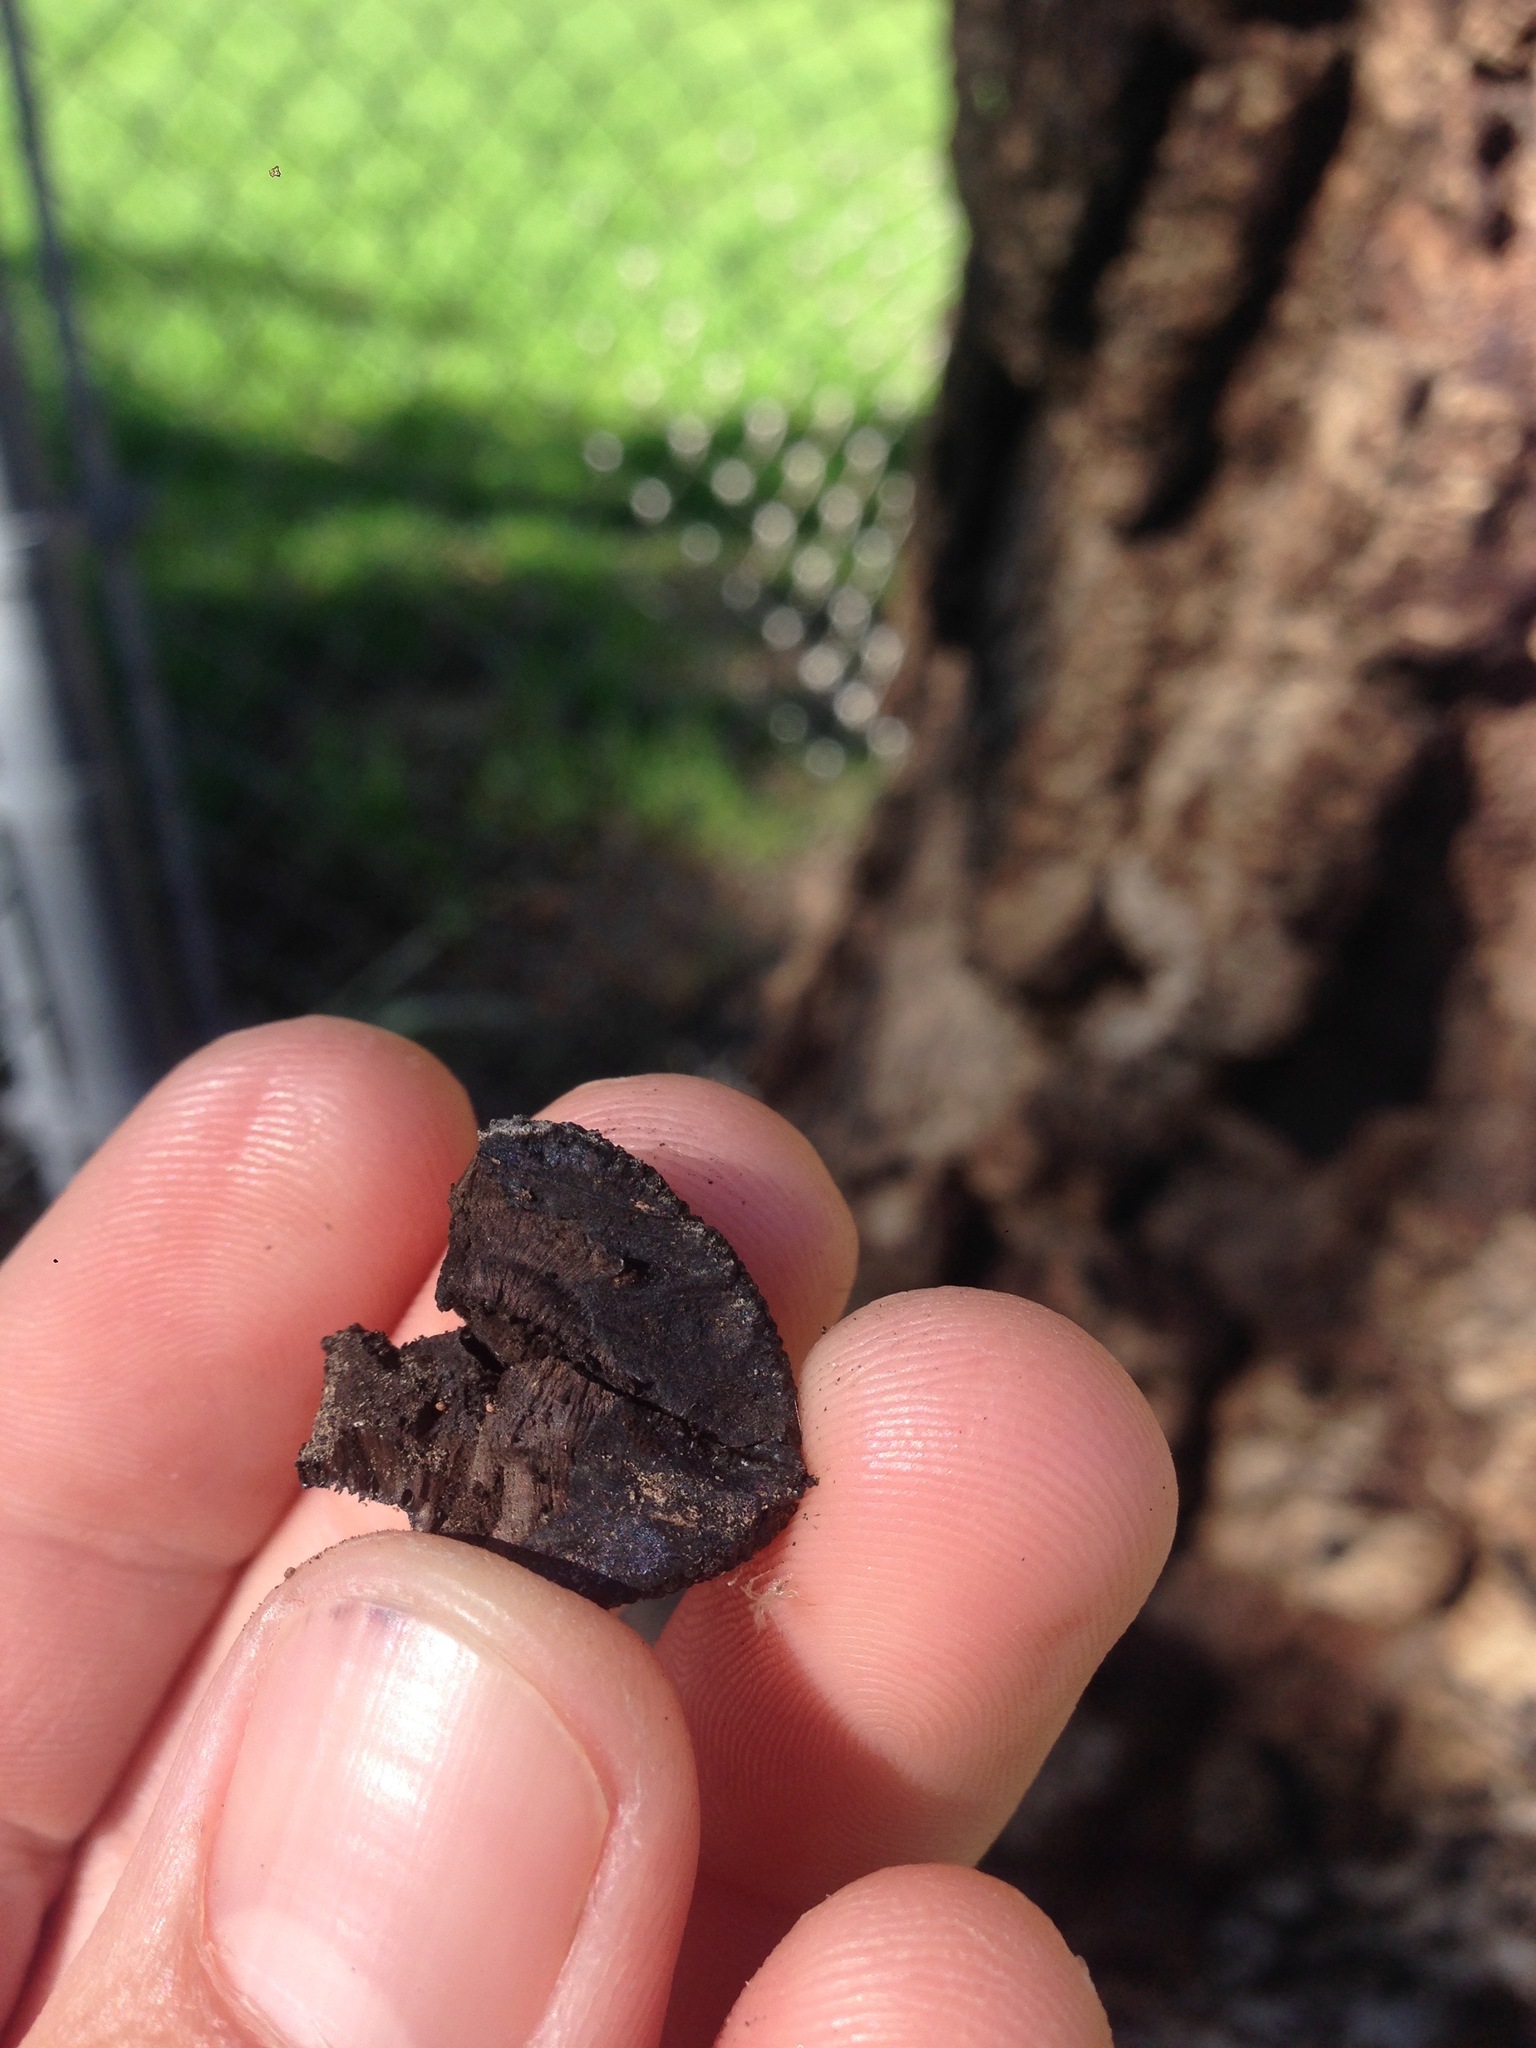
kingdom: Fungi
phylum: Ascomycota
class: Sordariomycetes
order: Xylariales
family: Hypoxylaceae
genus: Annulohypoxylon
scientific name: Annulohypoxylon thouarsianum
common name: Cramp balls
